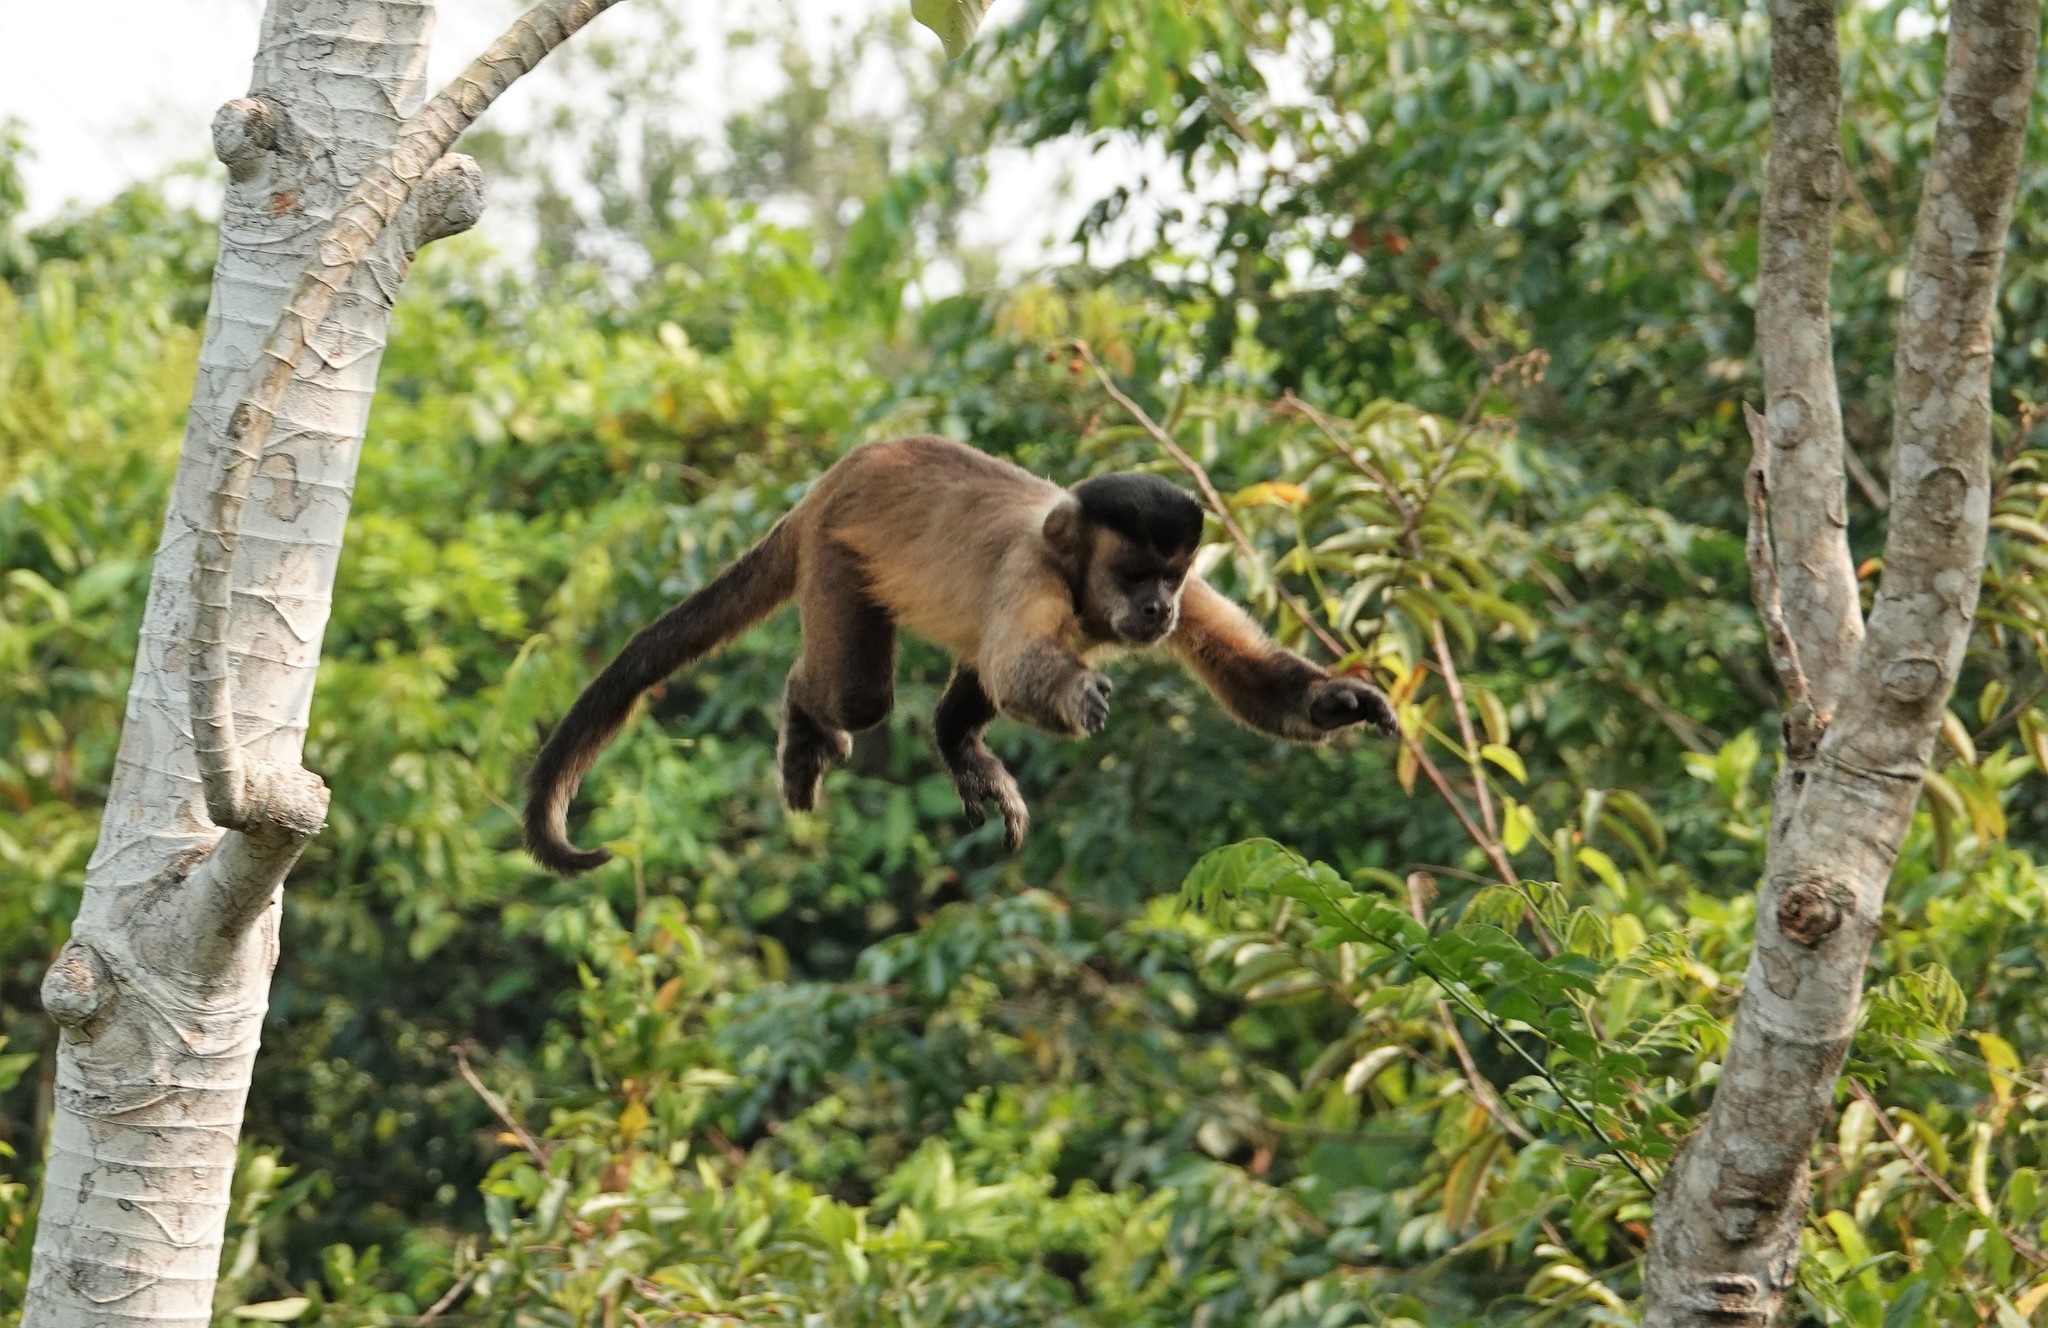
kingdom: Animalia
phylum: Chordata
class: Mammalia
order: Primates
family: Cebidae
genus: Sapajus
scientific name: Sapajus libidinosus
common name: Bearded capuchin
